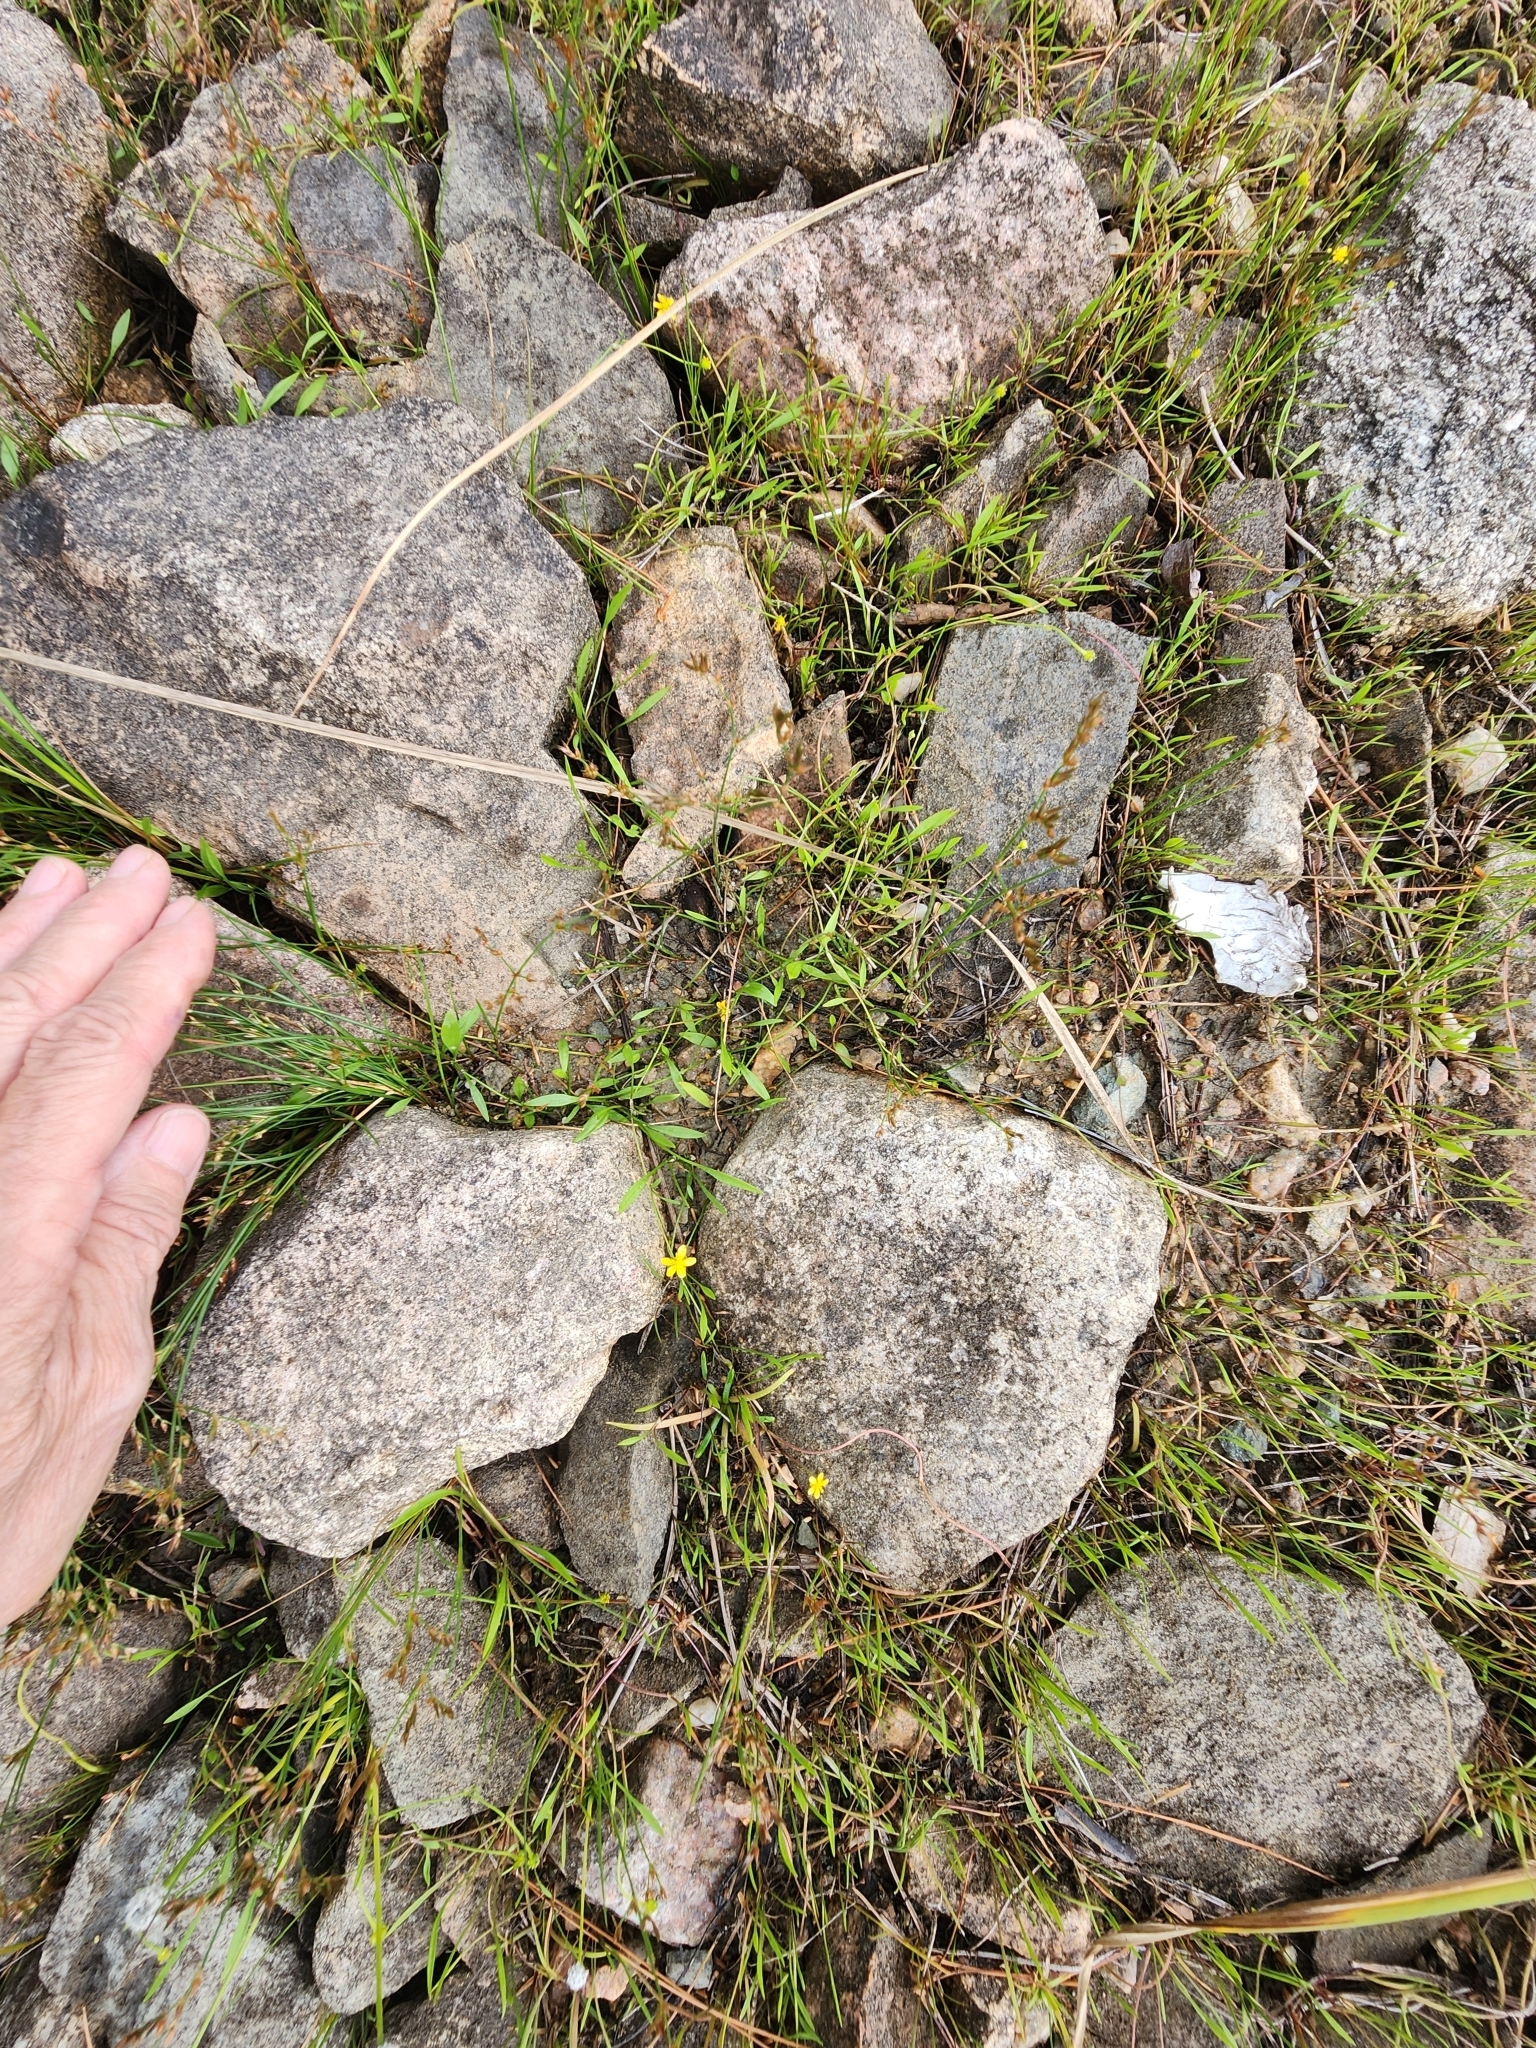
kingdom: Plantae
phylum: Tracheophyta
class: Magnoliopsida
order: Ranunculales
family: Ranunculaceae
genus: Ranunculus
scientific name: Ranunculus flammula
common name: Lesser spearwort
